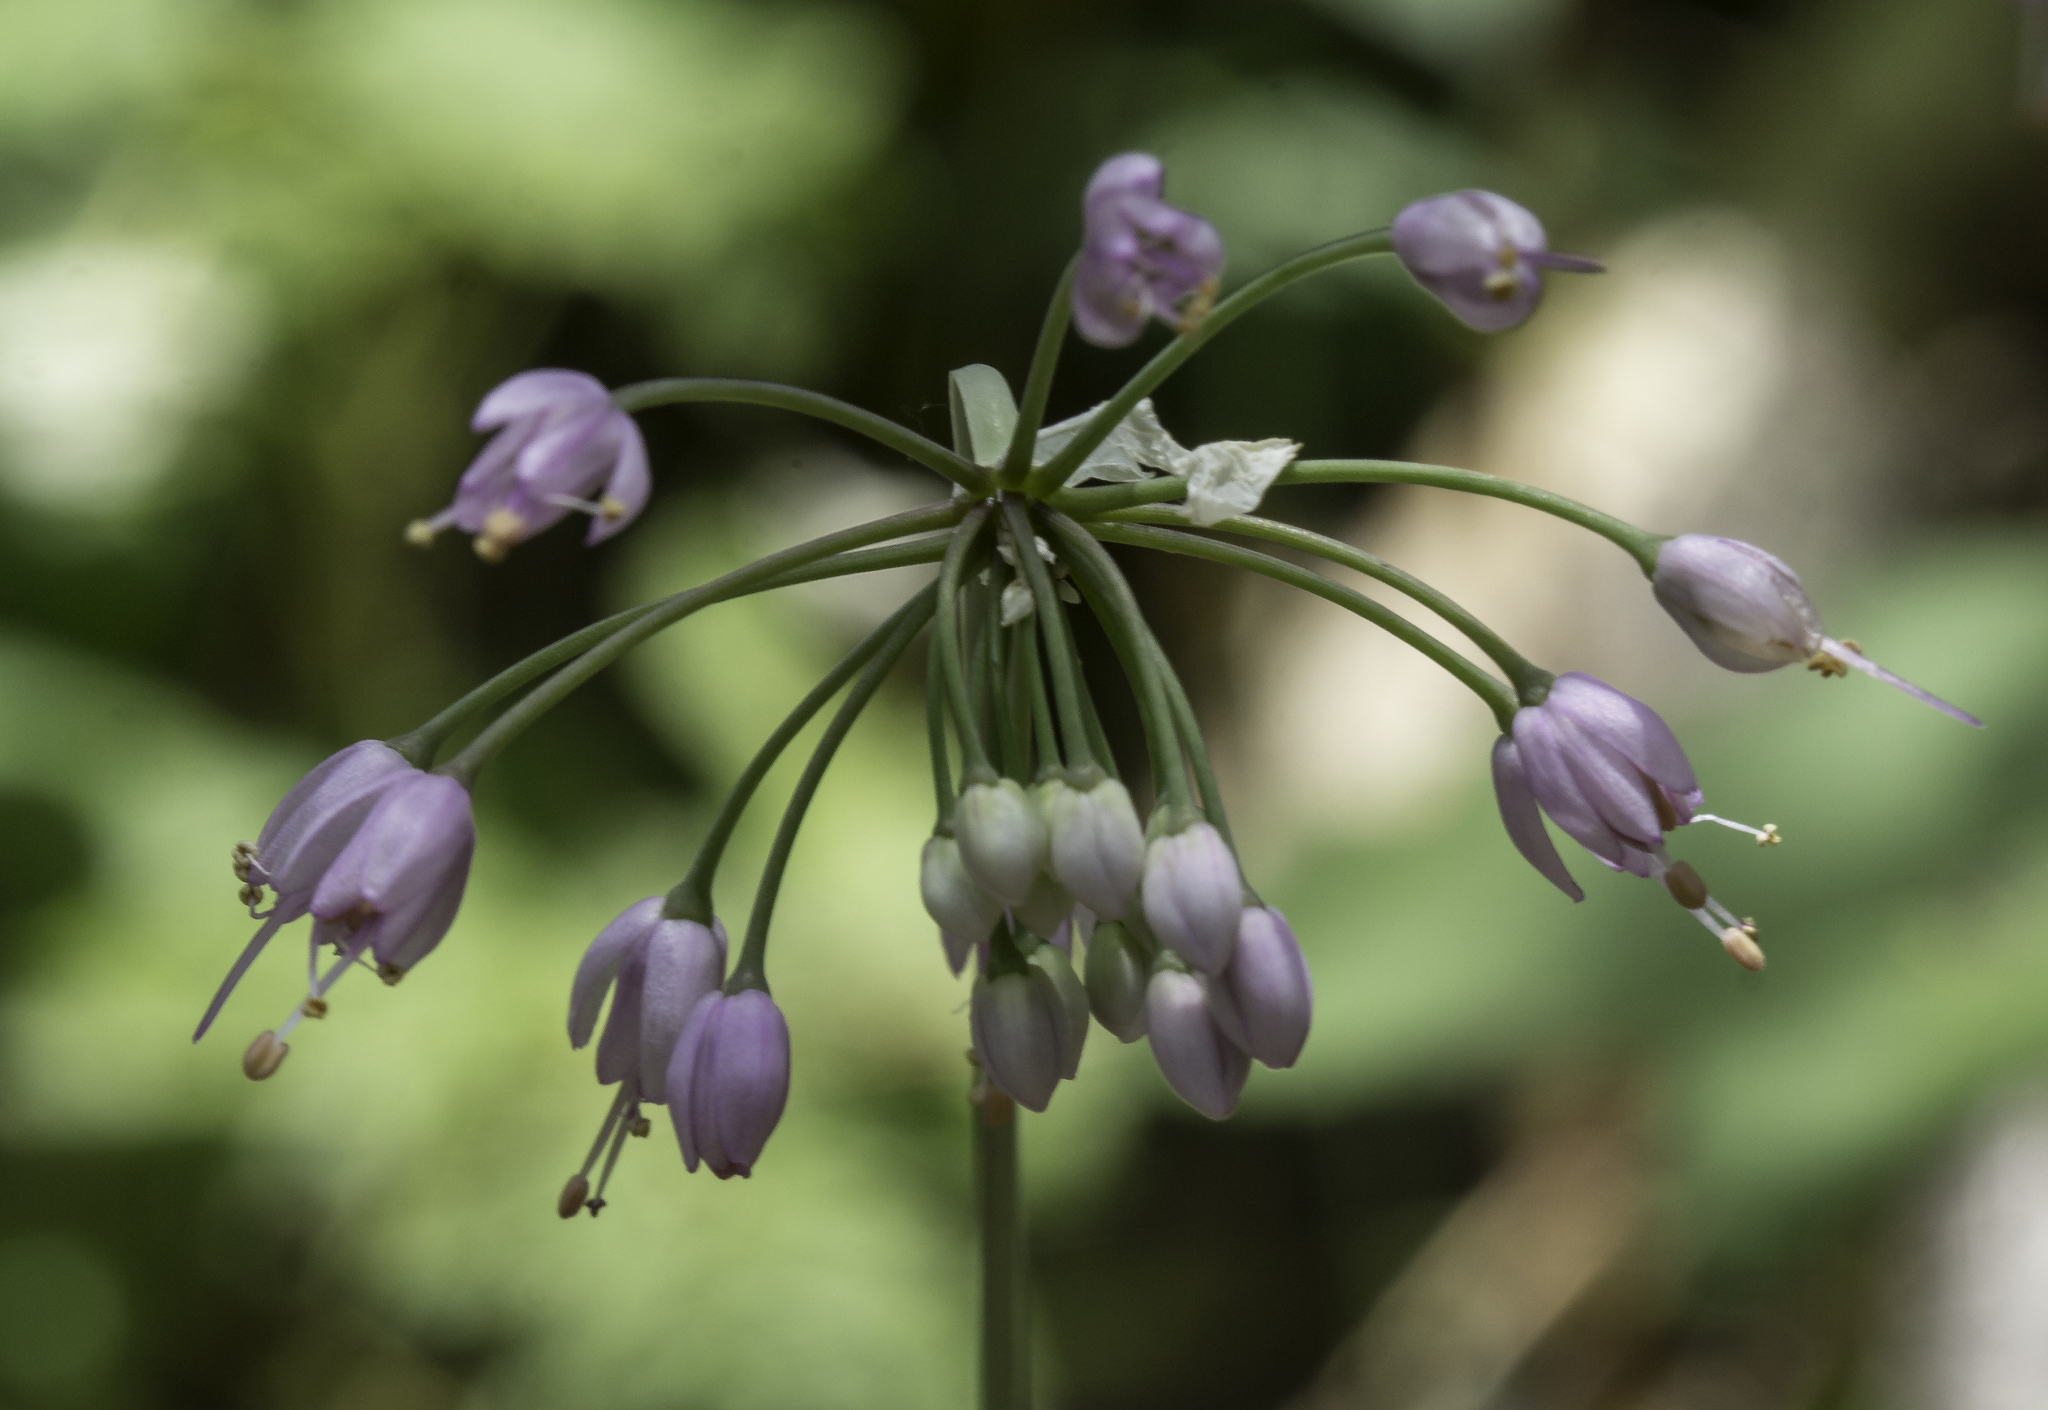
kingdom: Plantae
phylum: Tracheophyta
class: Liliopsida
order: Asparagales
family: Amaryllidaceae
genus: Allium
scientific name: Allium cernuum
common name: Nodding onion
